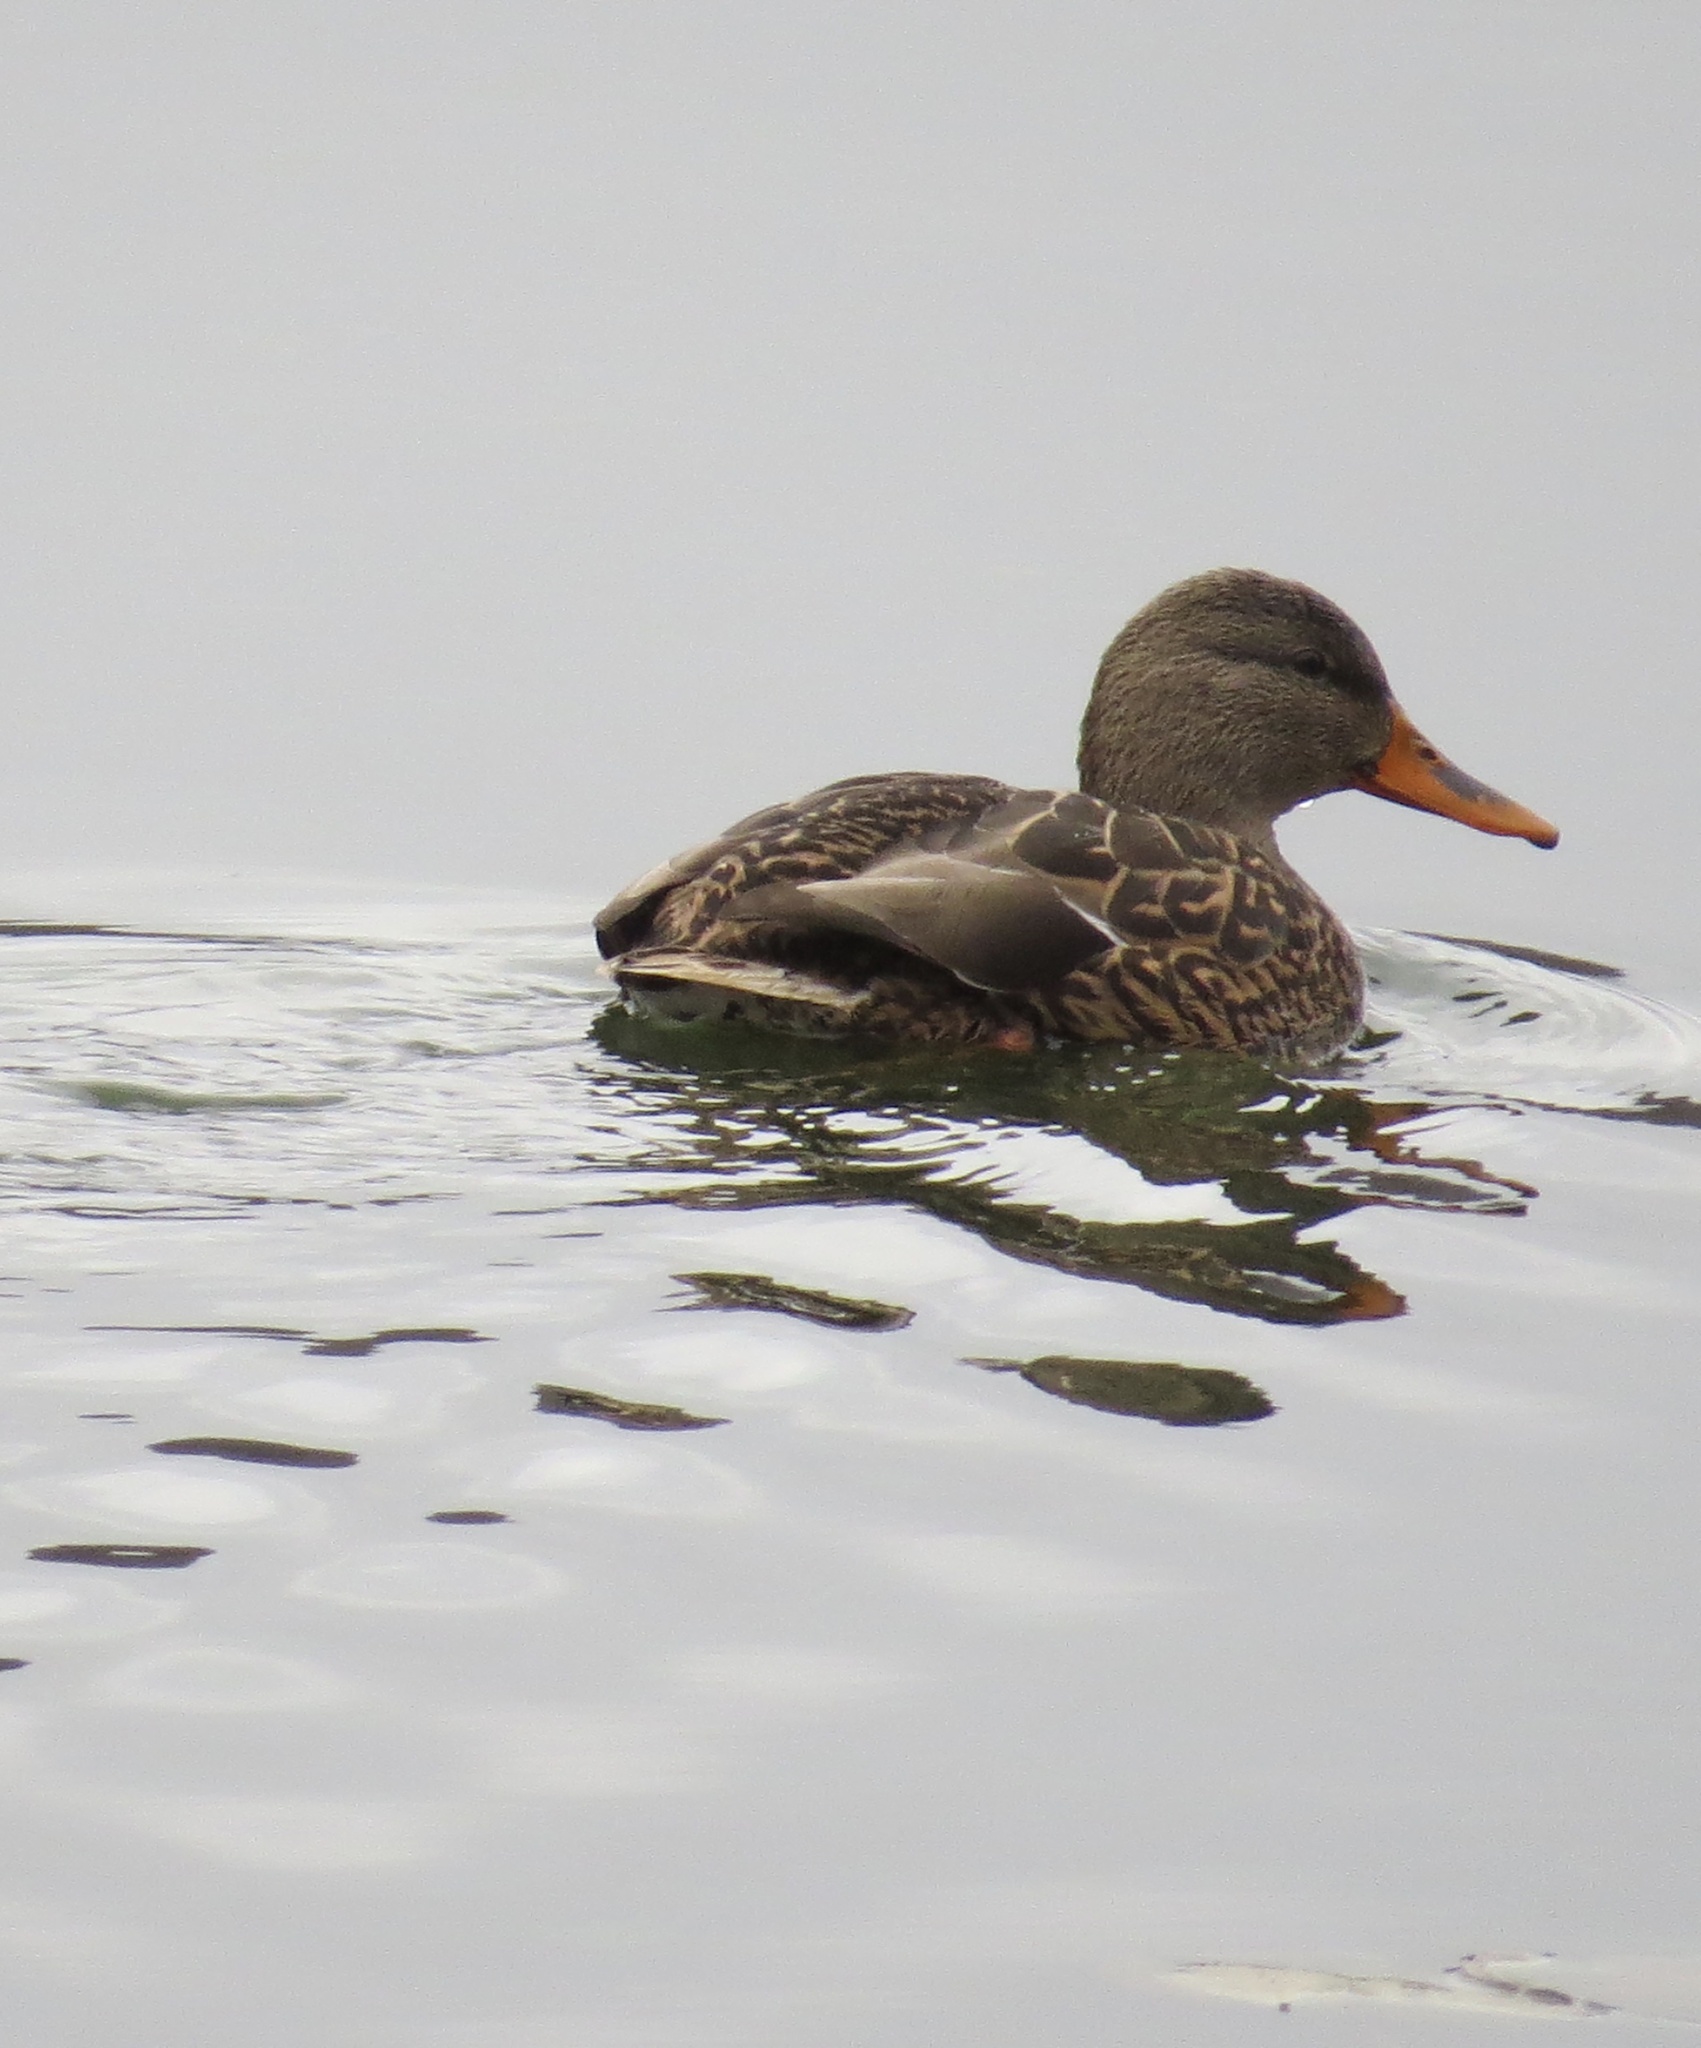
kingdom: Animalia
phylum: Chordata
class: Aves
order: Anseriformes
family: Anatidae
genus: Anas
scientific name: Anas platyrhynchos
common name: Mallard
